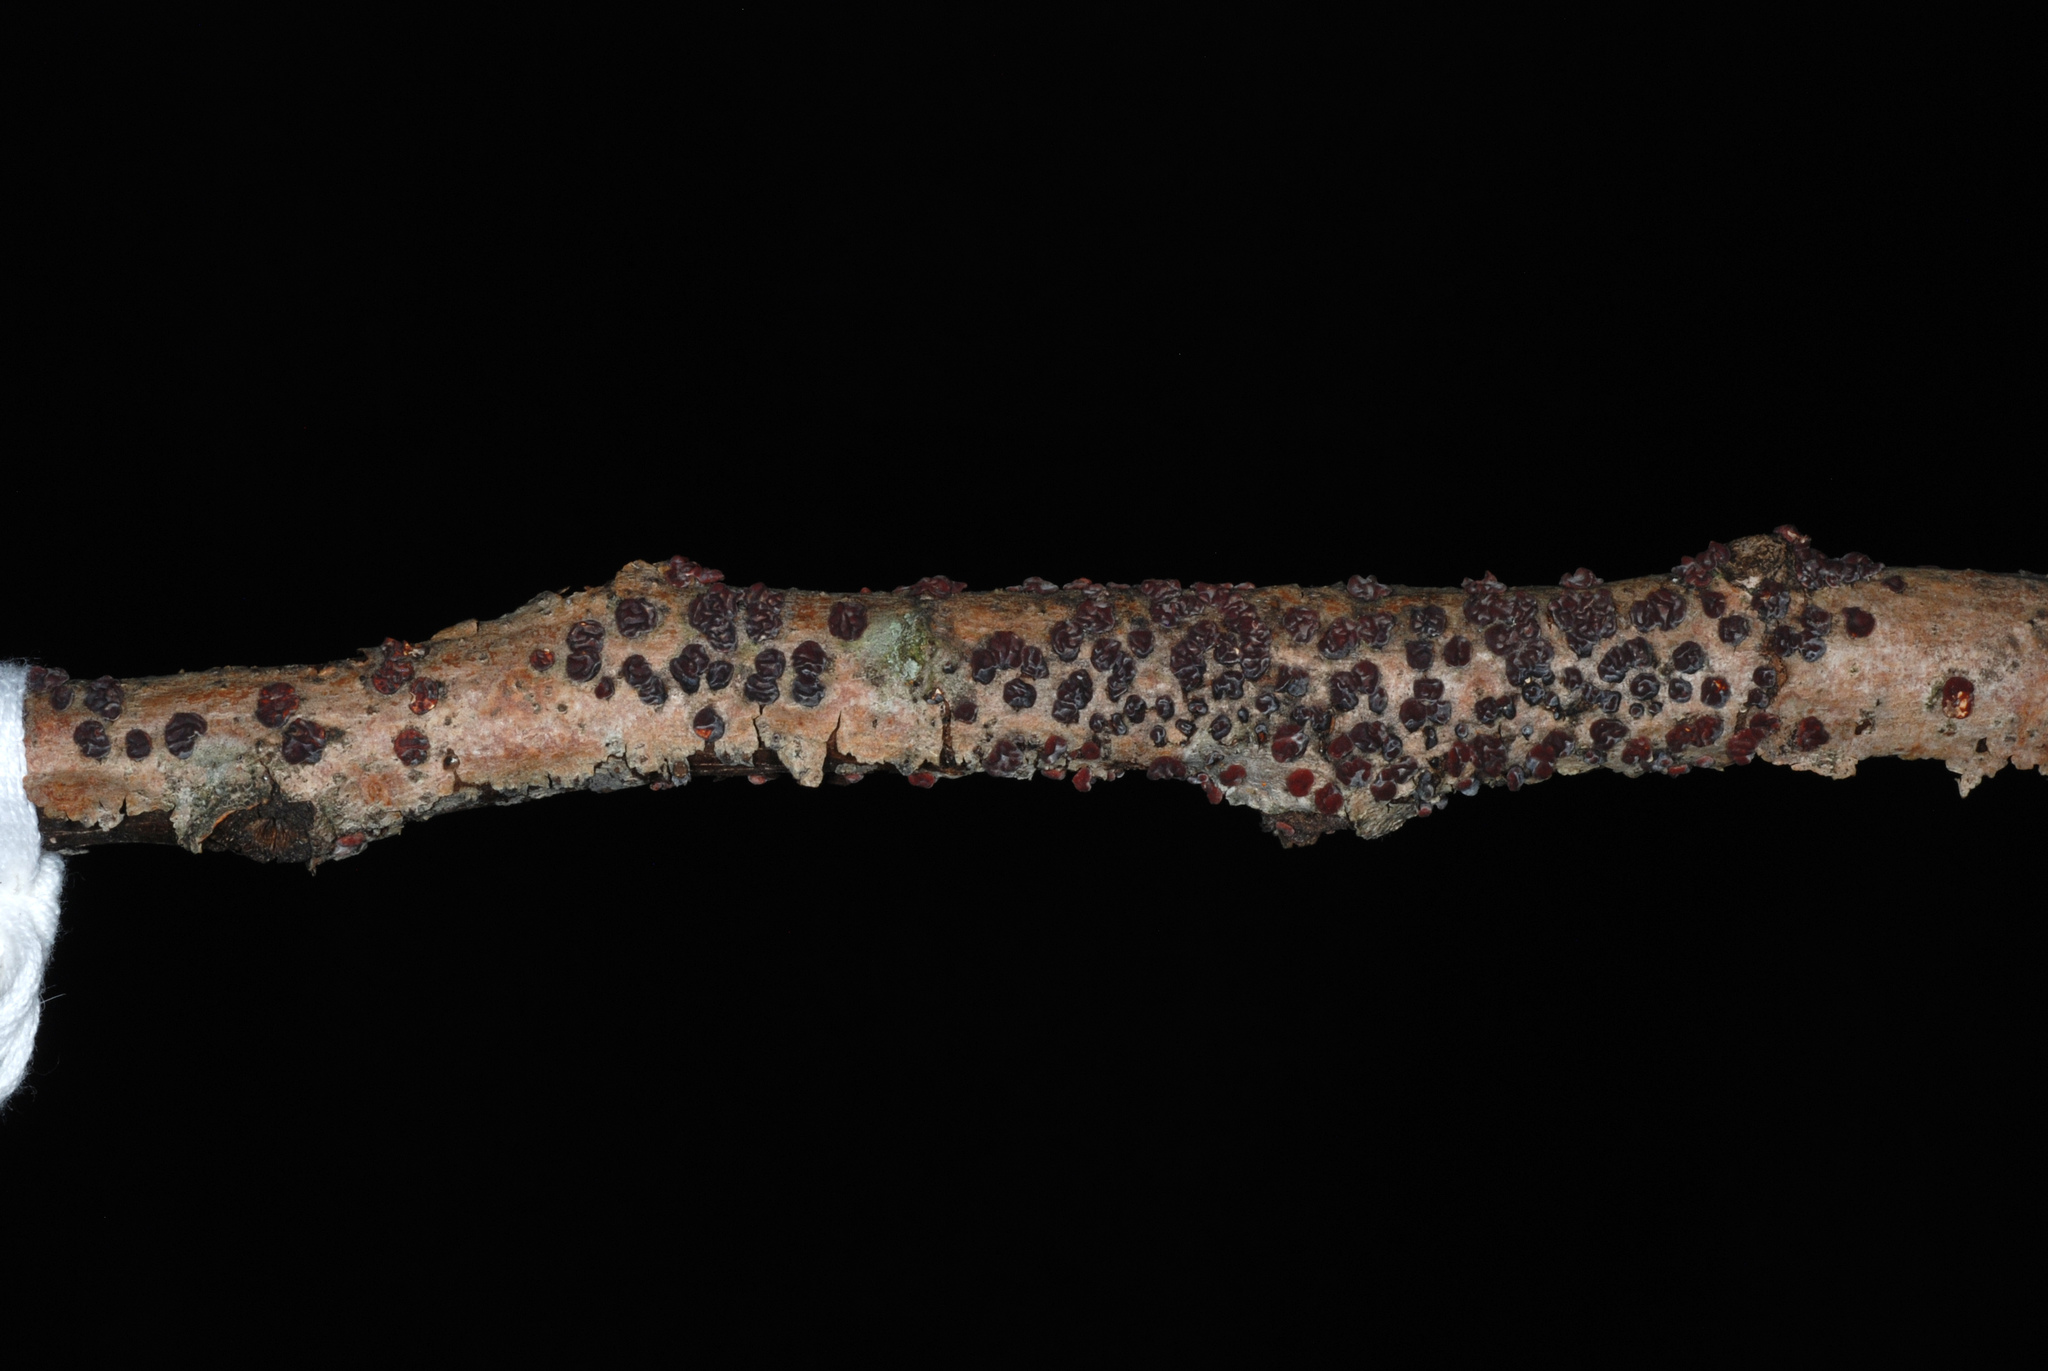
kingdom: Fungi
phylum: Basidiomycota
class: Agaricomycetes
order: Russulales
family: Peniophoraceae
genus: Peniophora
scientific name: Peniophora rufa
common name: Red tree brain fungus
